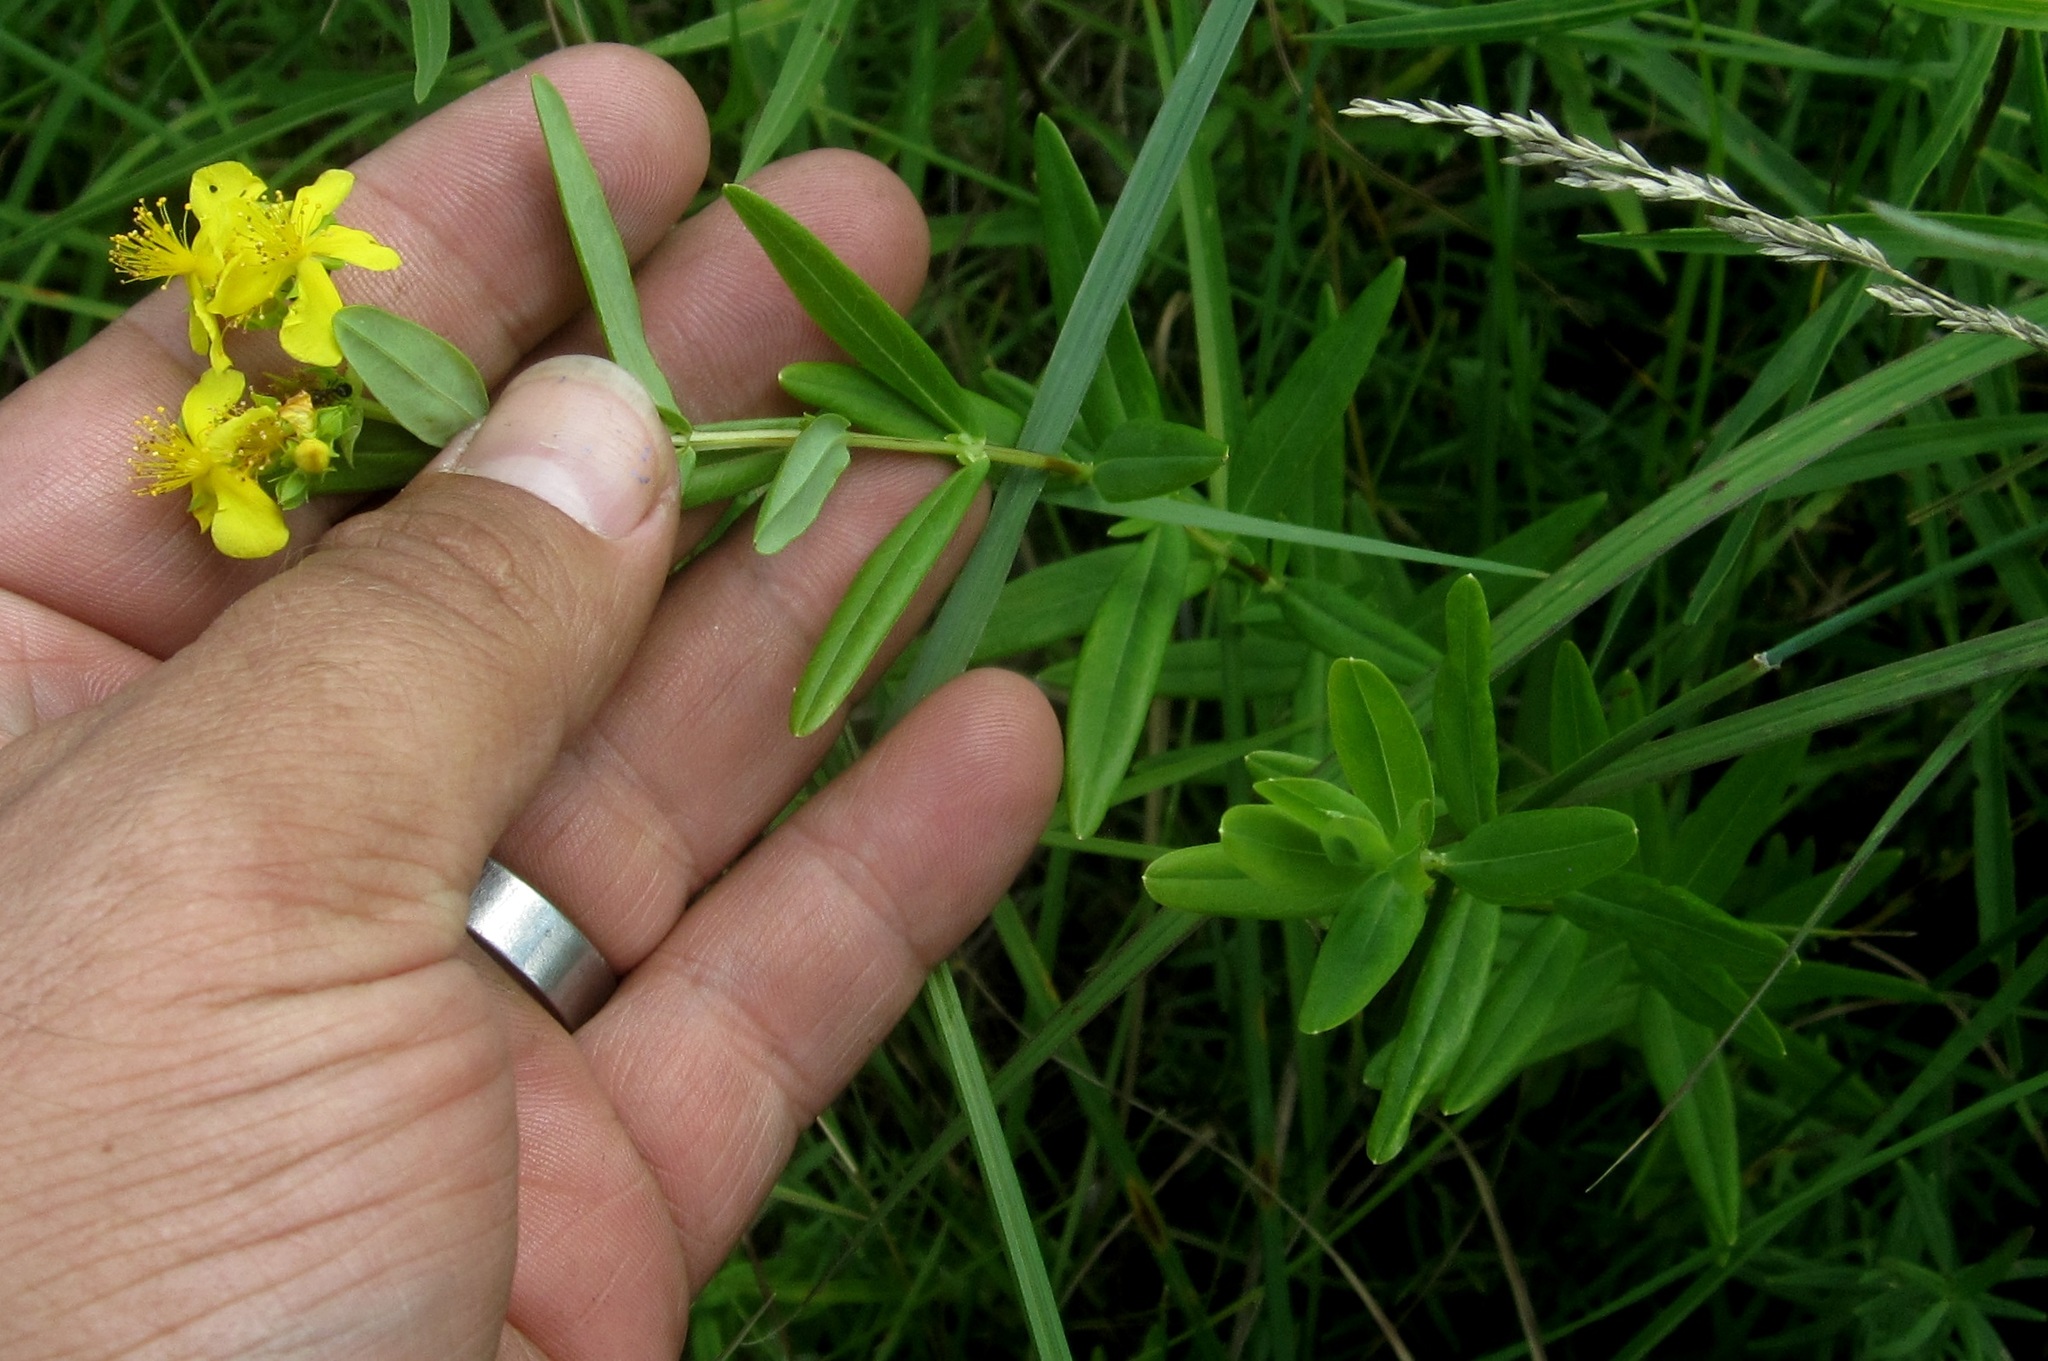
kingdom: Plantae
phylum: Tracheophyta
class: Magnoliopsida
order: Malpighiales
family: Hypericaceae
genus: Hypericum
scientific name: Hypericum sphaerocarpum
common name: Round-fruited st. john's-wort
